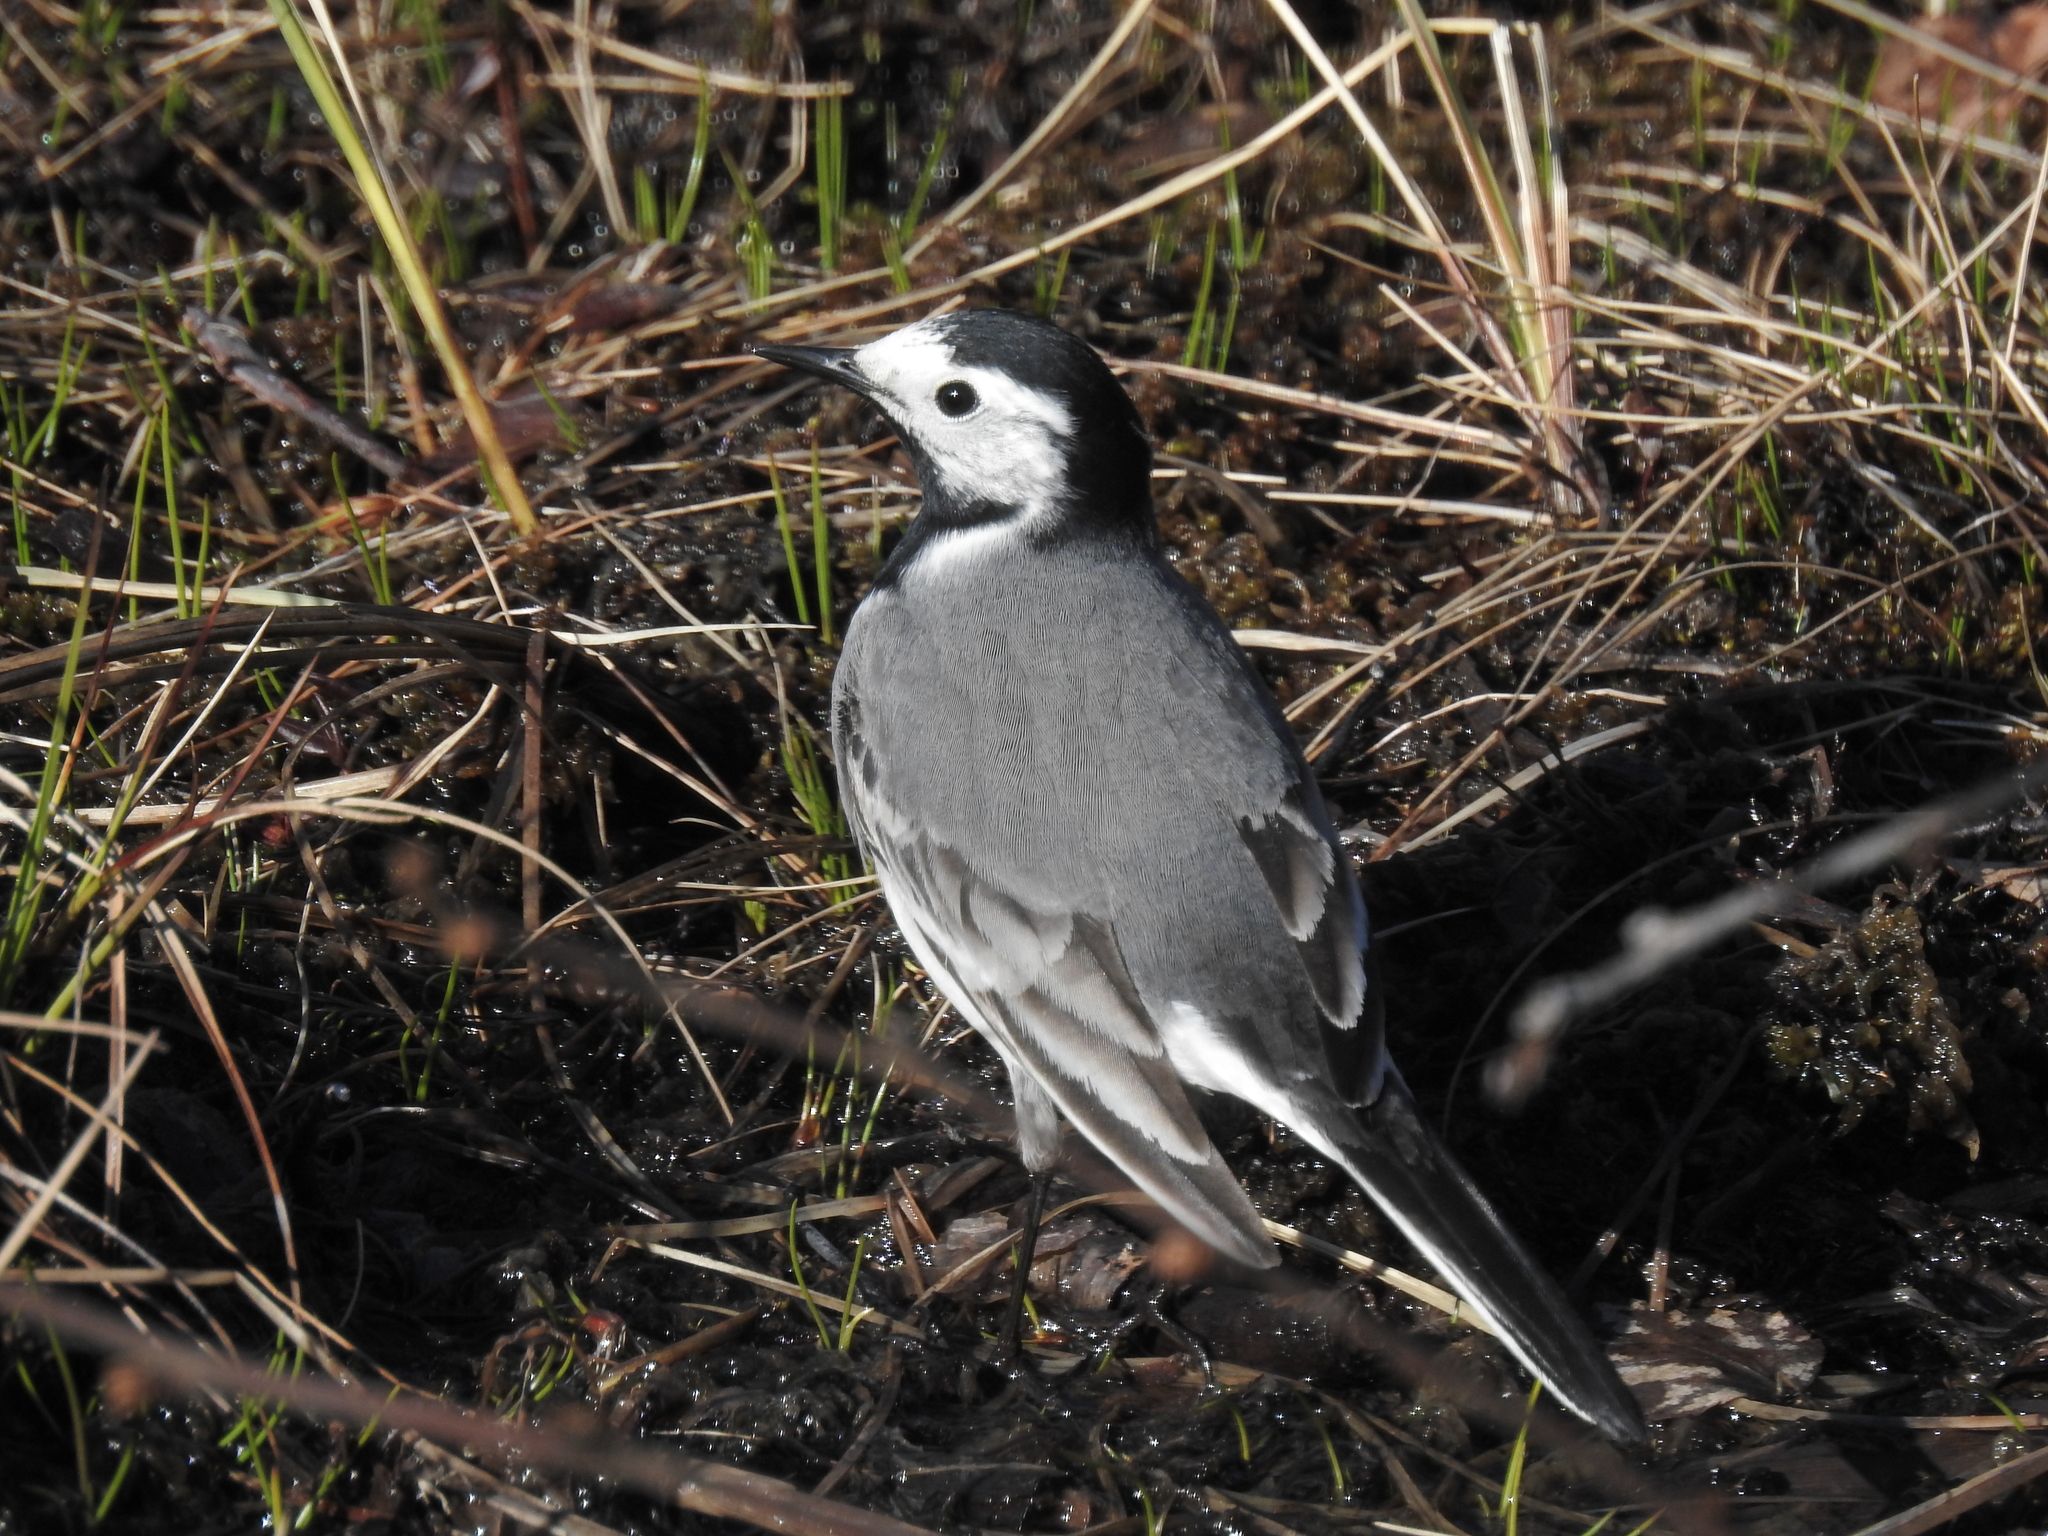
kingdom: Animalia
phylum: Chordata
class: Aves
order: Passeriformes
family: Motacillidae
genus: Motacilla
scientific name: Motacilla alba
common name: White wagtail
